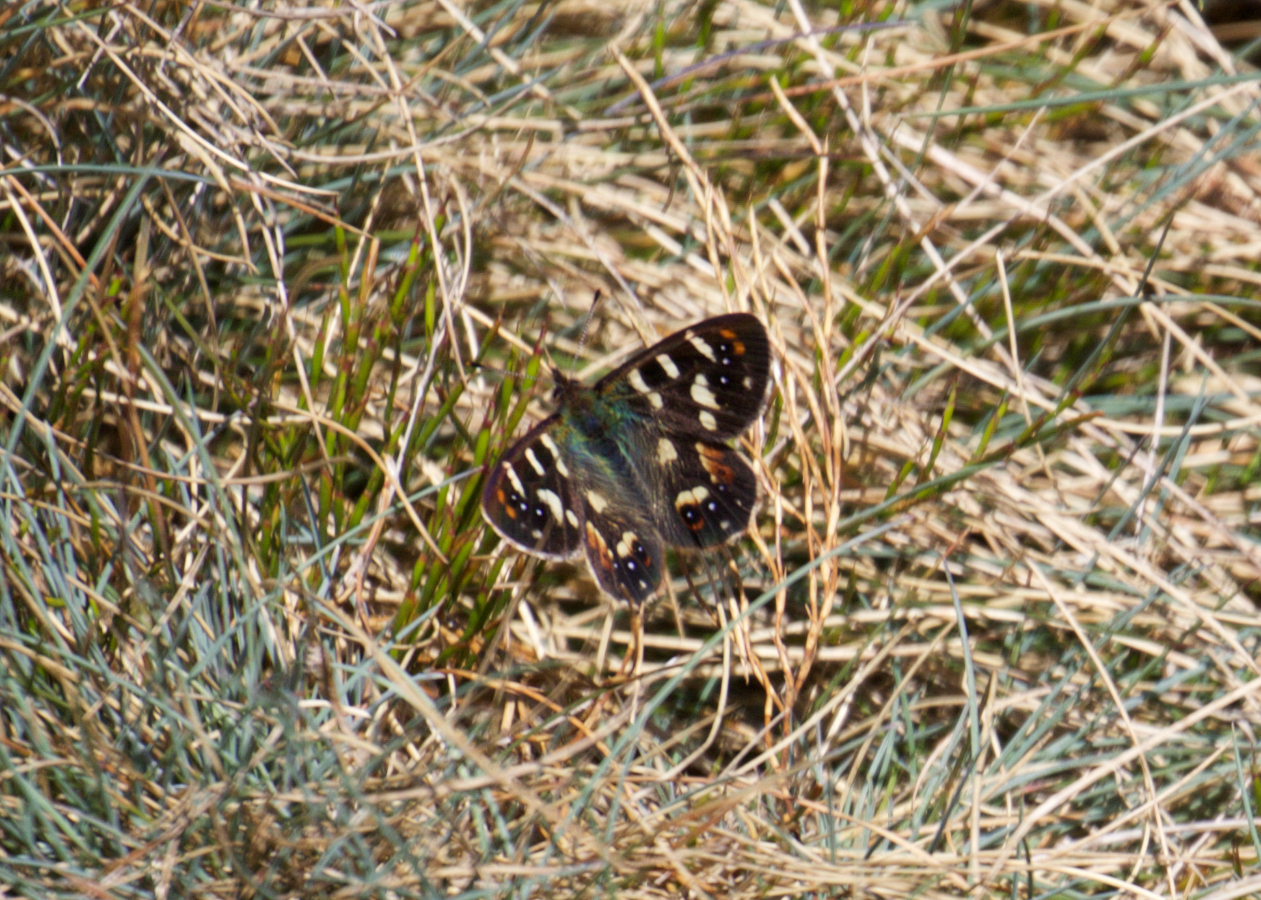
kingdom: Animalia
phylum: Arthropoda
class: Insecta
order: Lepidoptera
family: Nymphalidae
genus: Argynnina
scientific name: Argynnina hobartia
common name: Hobart brown
